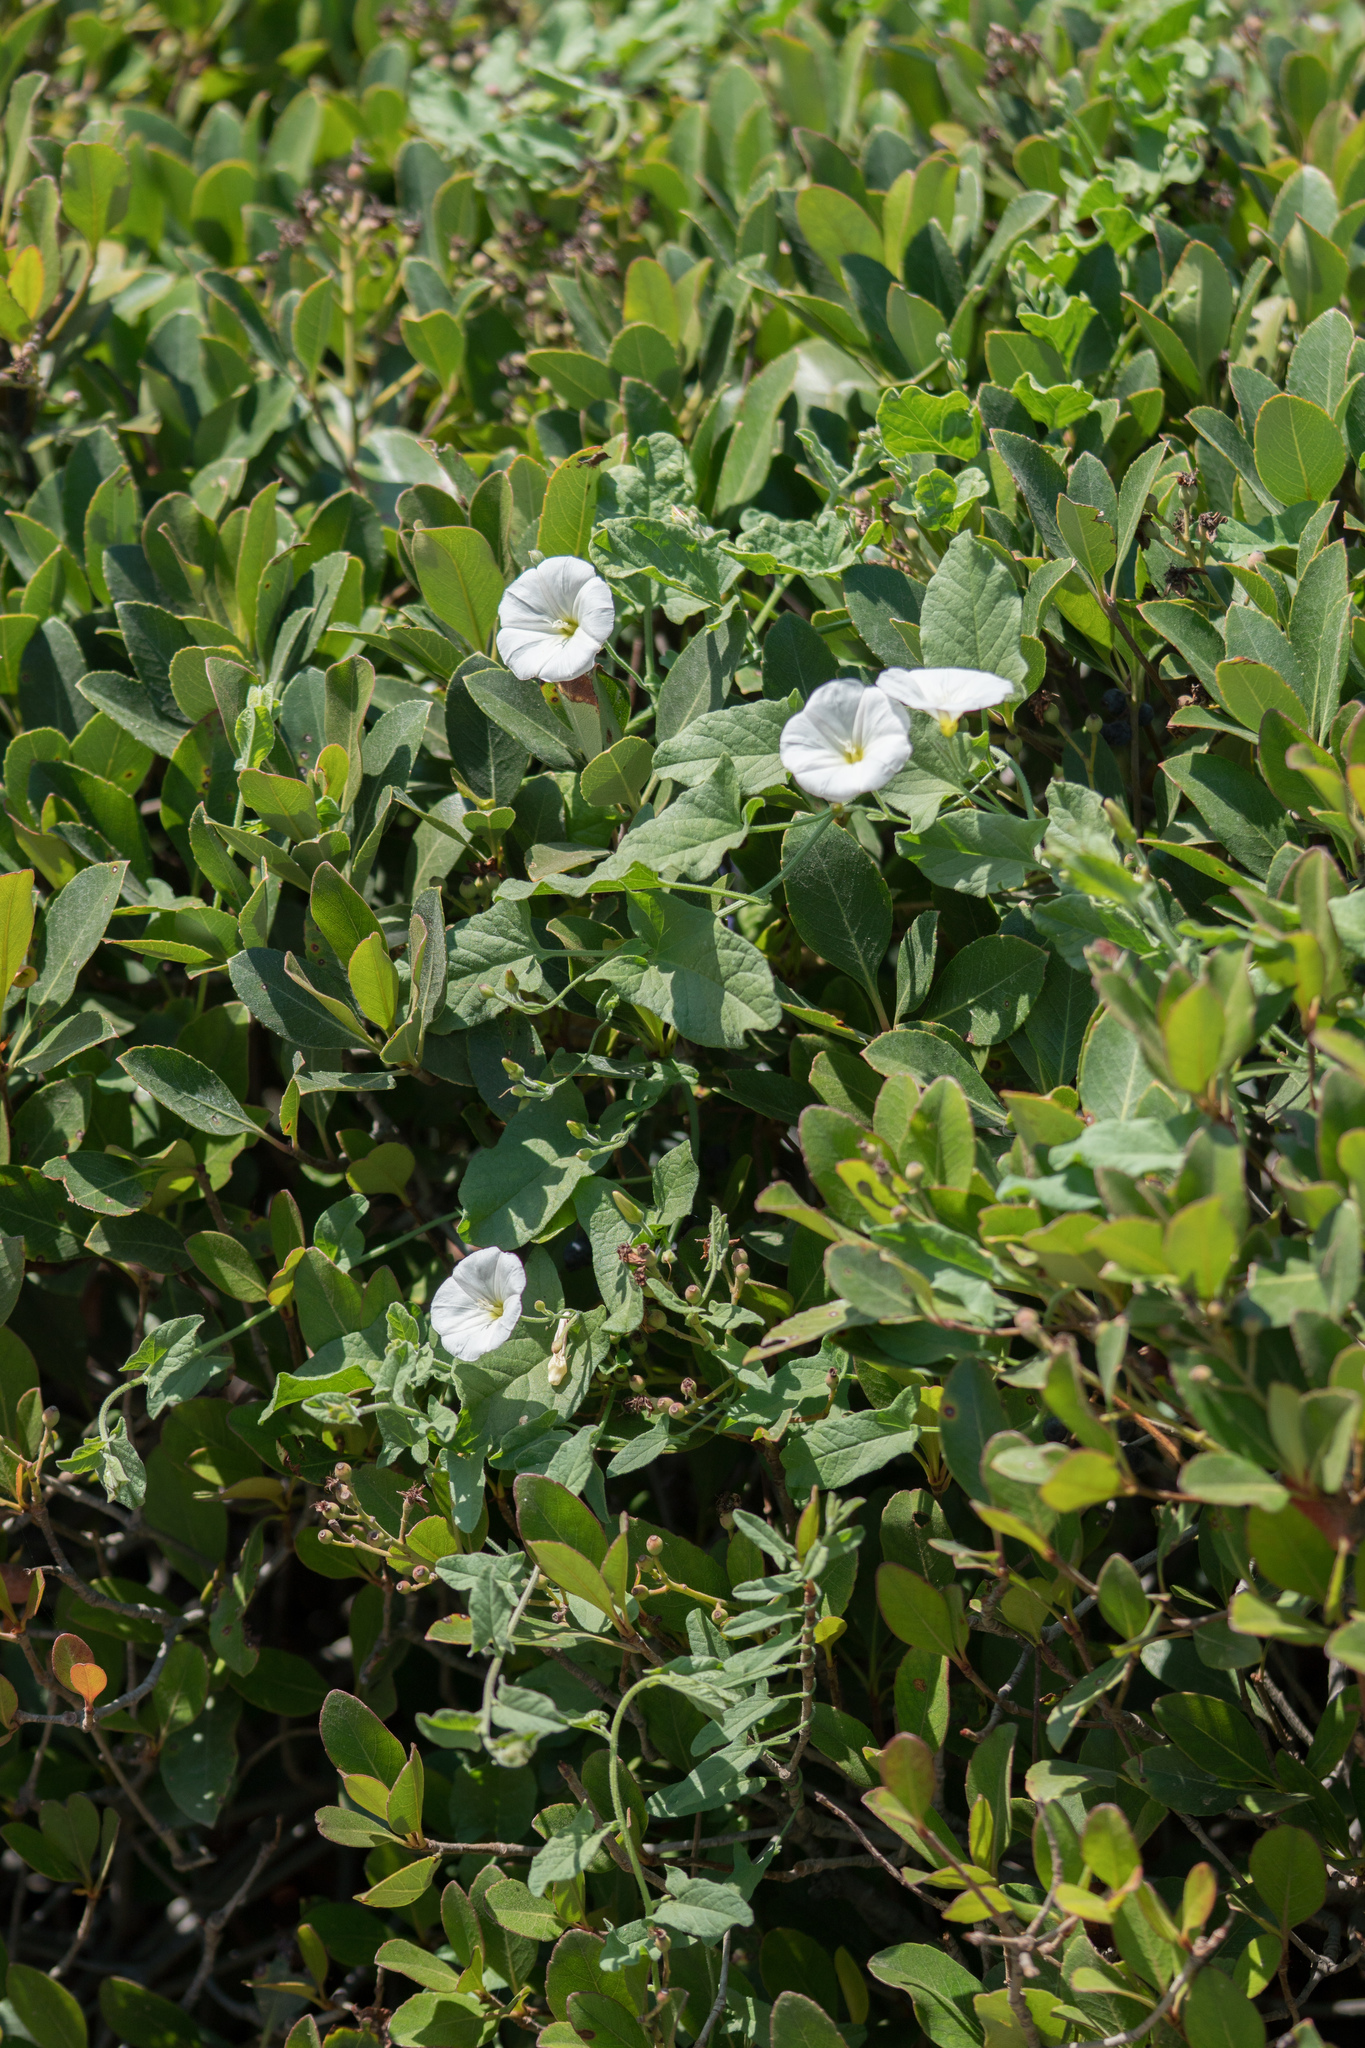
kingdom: Plantae
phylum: Tracheophyta
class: Magnoliopsida
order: Solanales
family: Convolvulaceae
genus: Convolvulus
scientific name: Convolvulus arvensis
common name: Field bindweed
